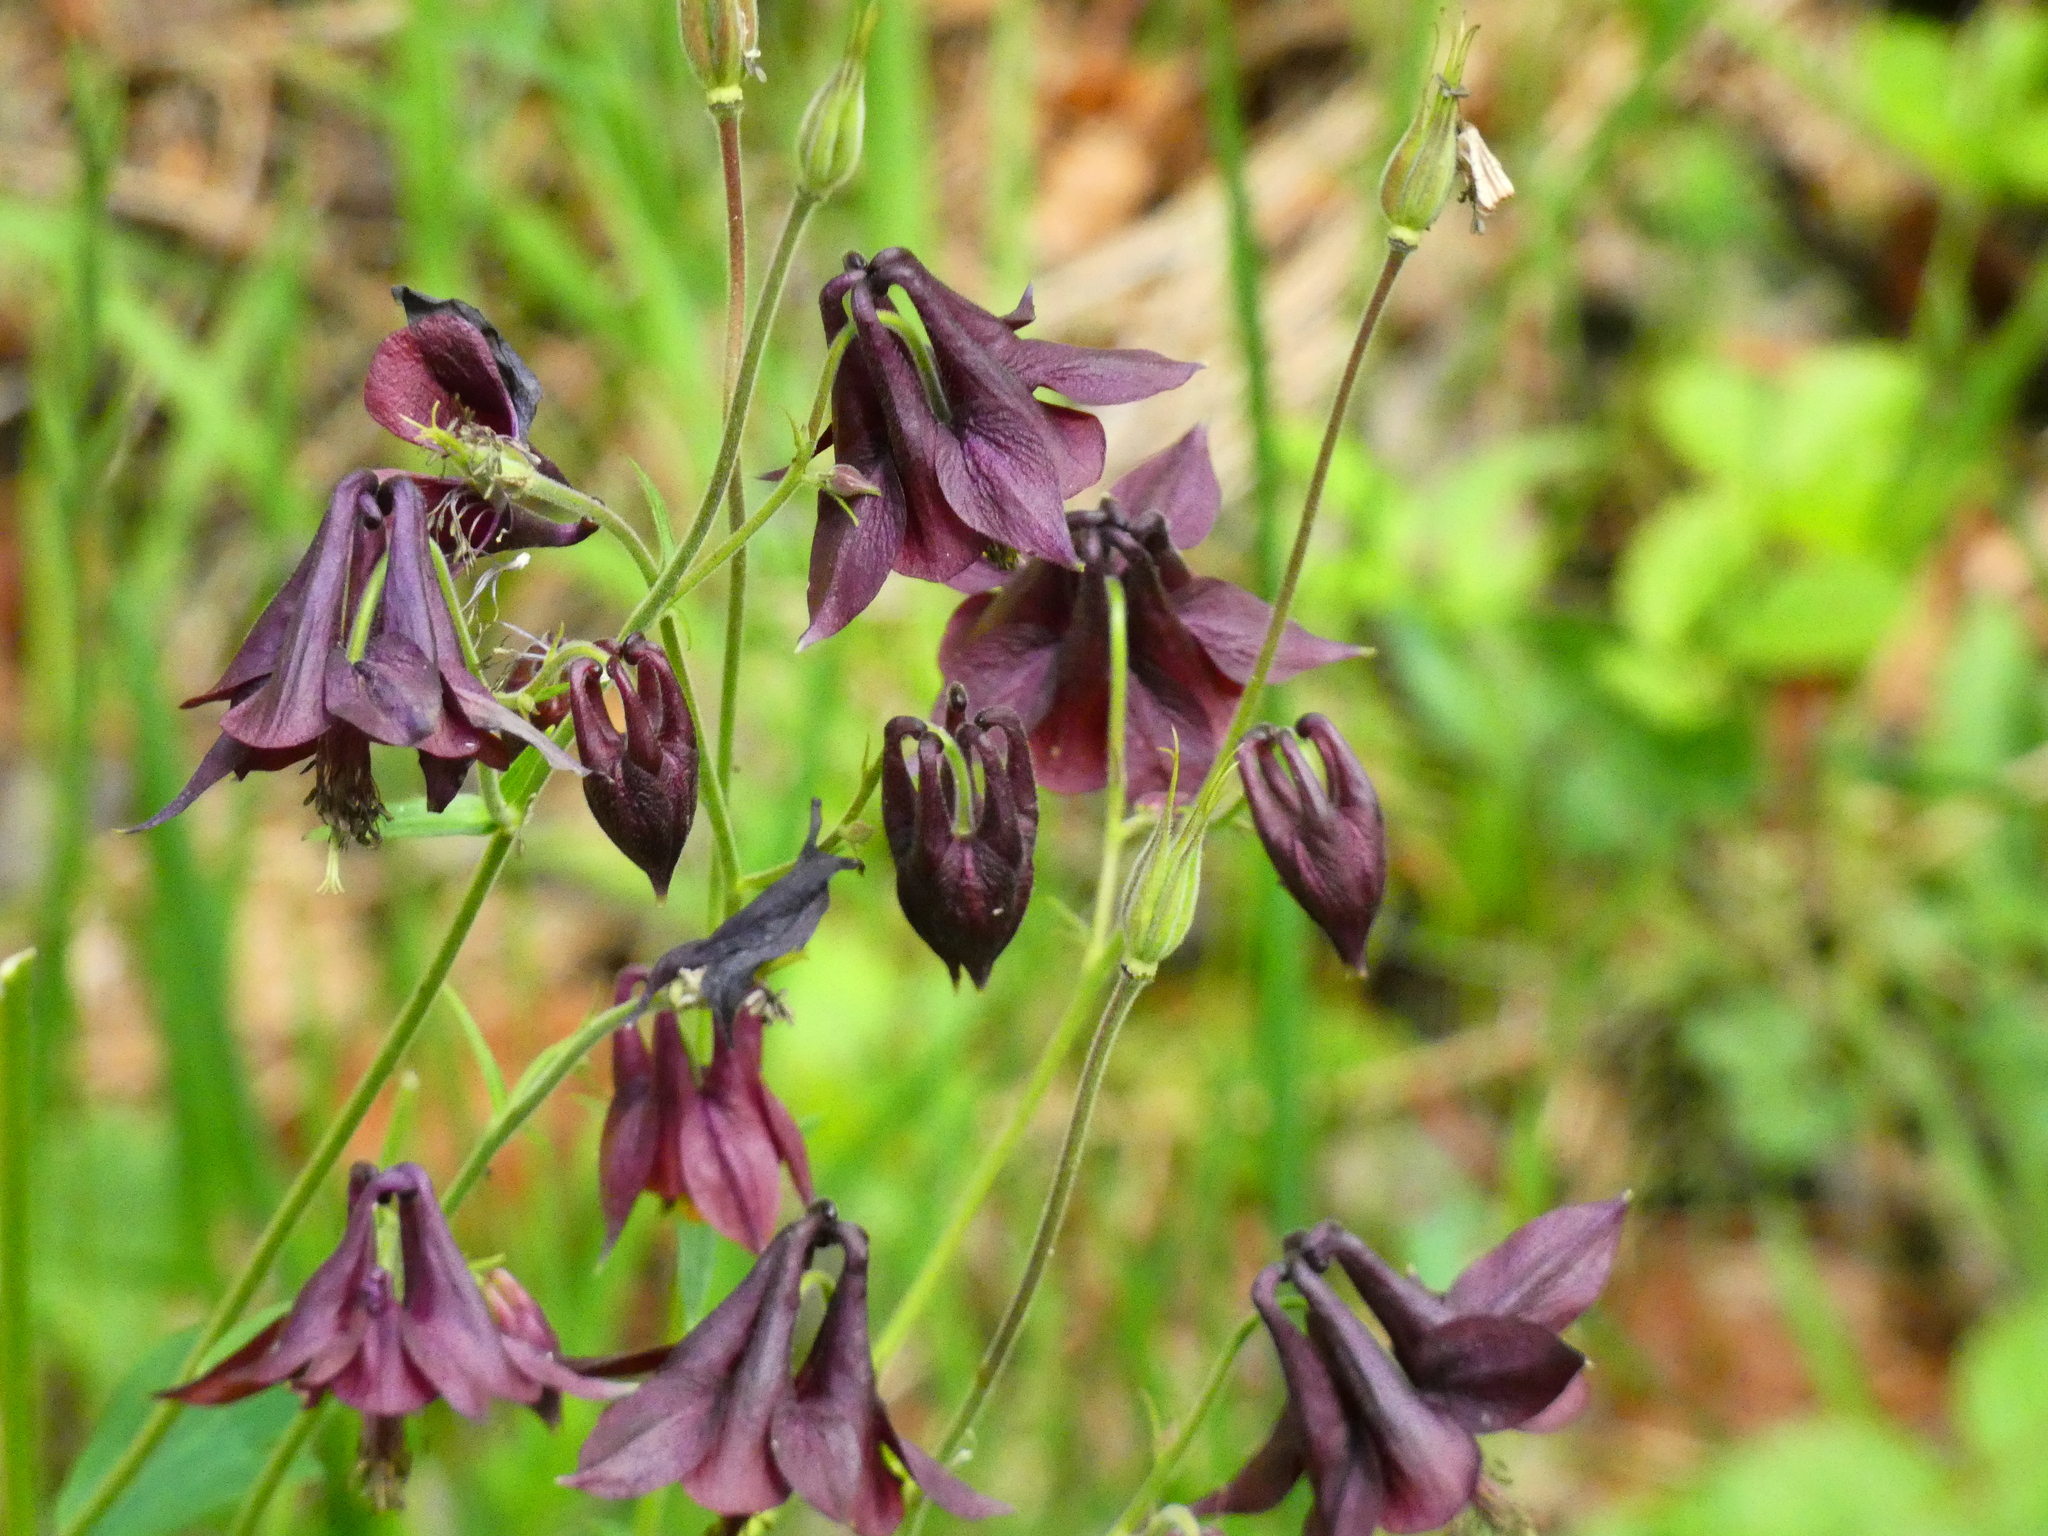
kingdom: Plantae
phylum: Tracheophyta
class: Magnoliopsida
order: Ranunculales
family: Ranunculaceae
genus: Aquilegia
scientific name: Aquilegia atrata
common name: Dark columbine
